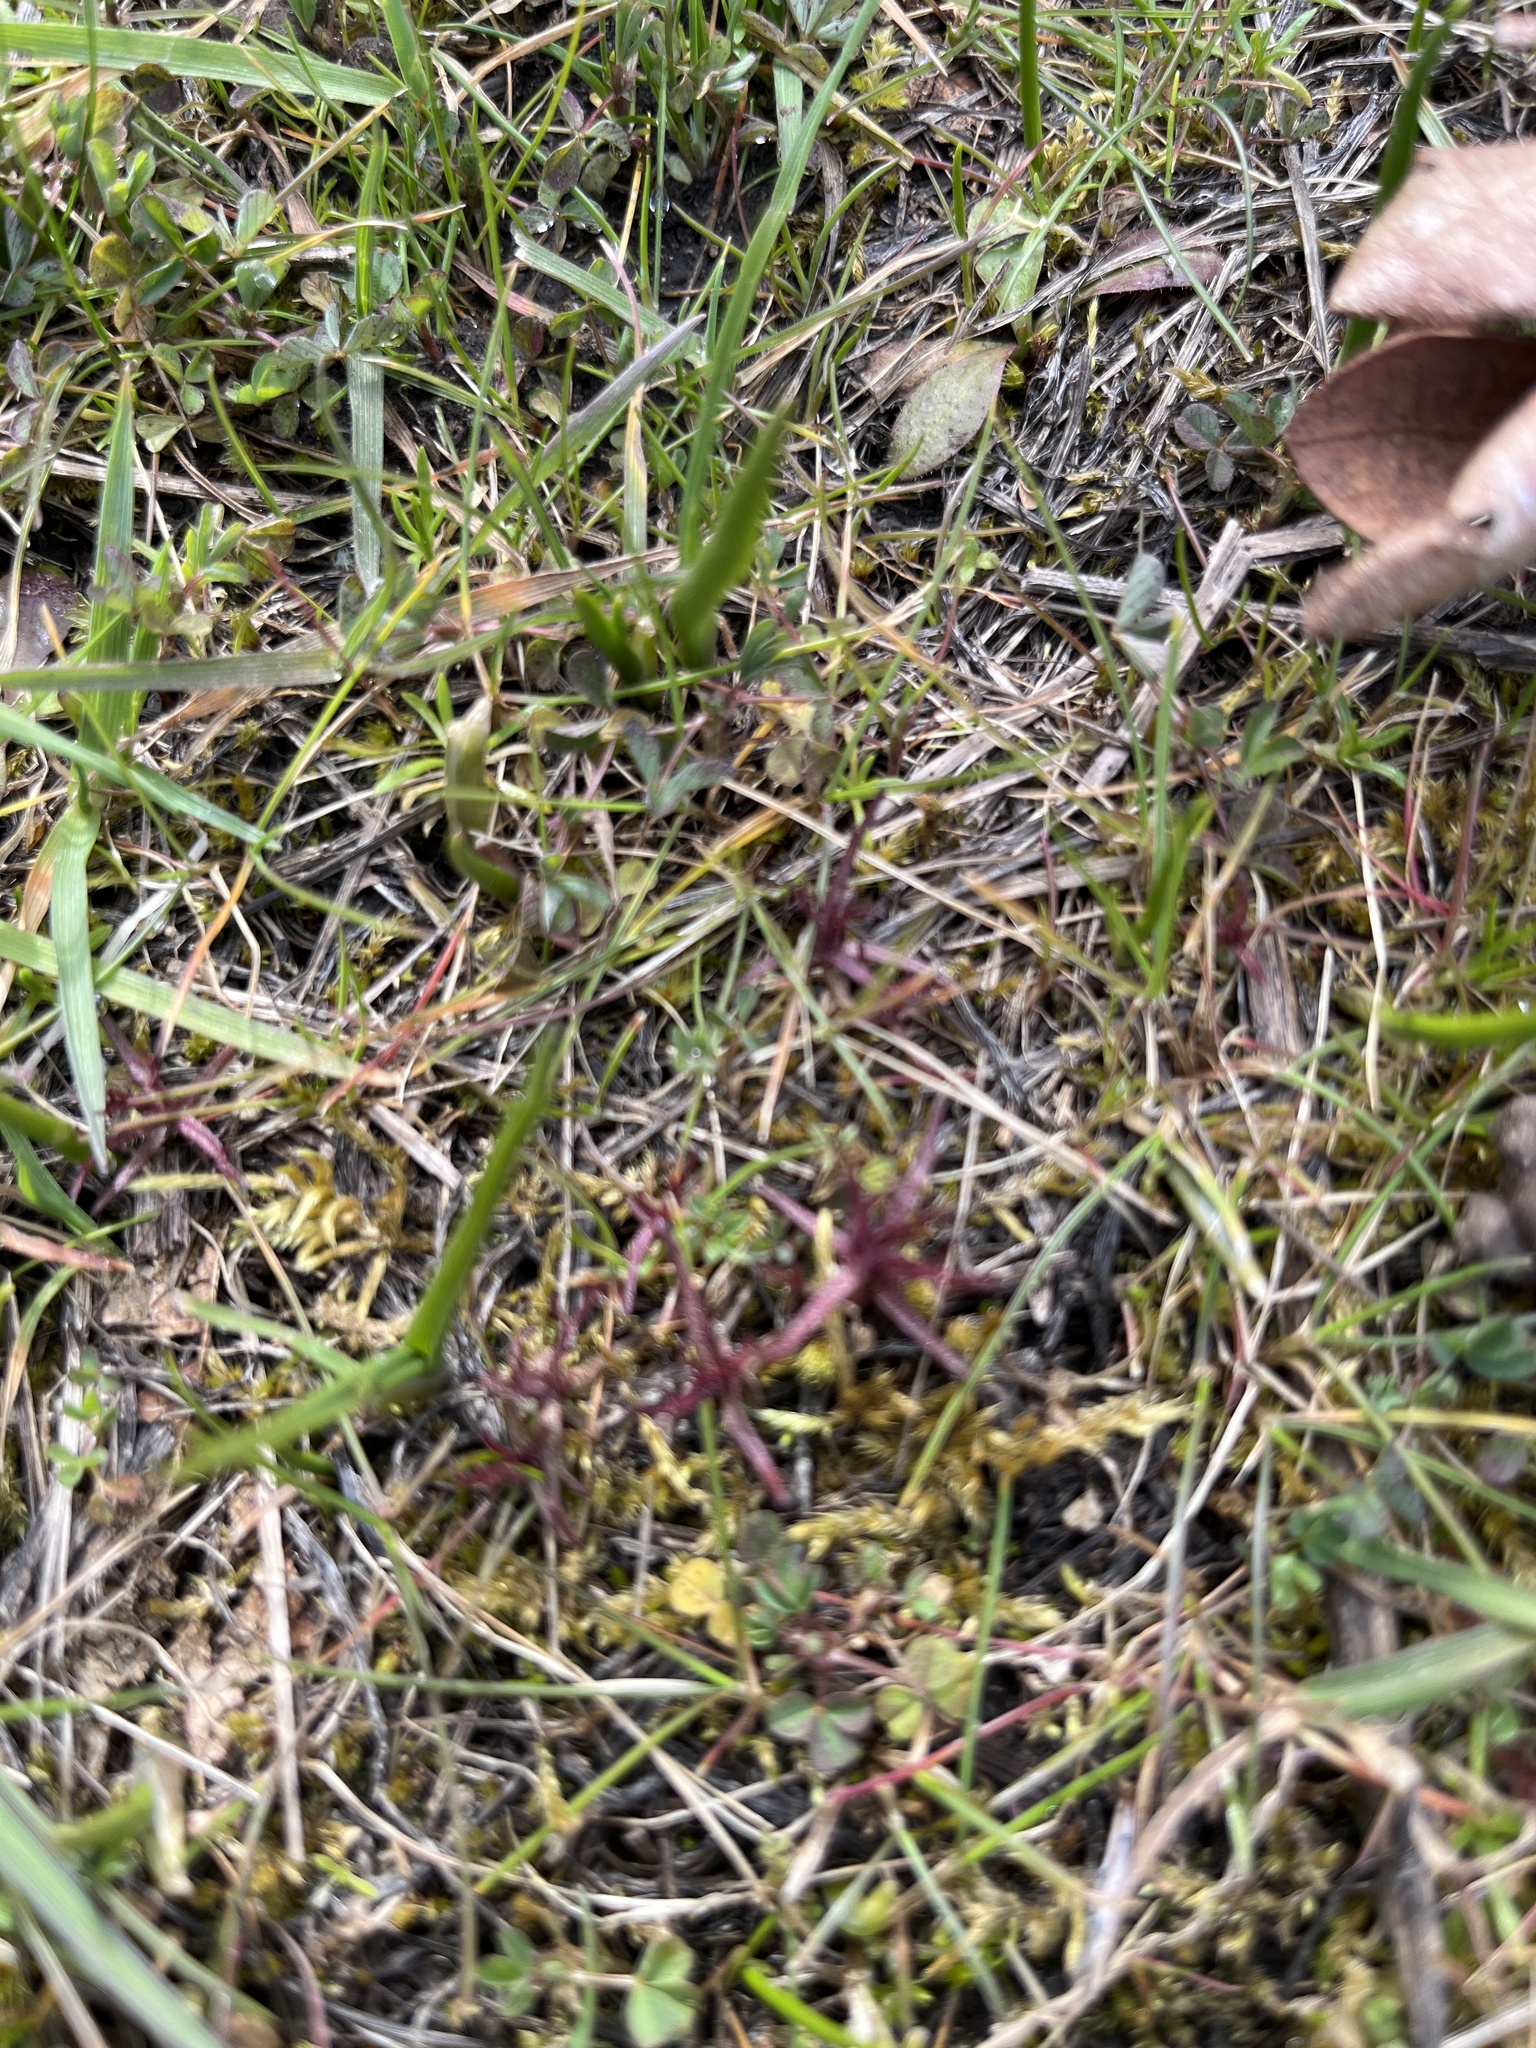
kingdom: Plantae
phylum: Tracheophyta
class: Magnoliopsida
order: Lamiales
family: Orobanchaceae
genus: Triphysaria
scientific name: Triphysaria pusilla
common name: Dwarf false owl-clover
